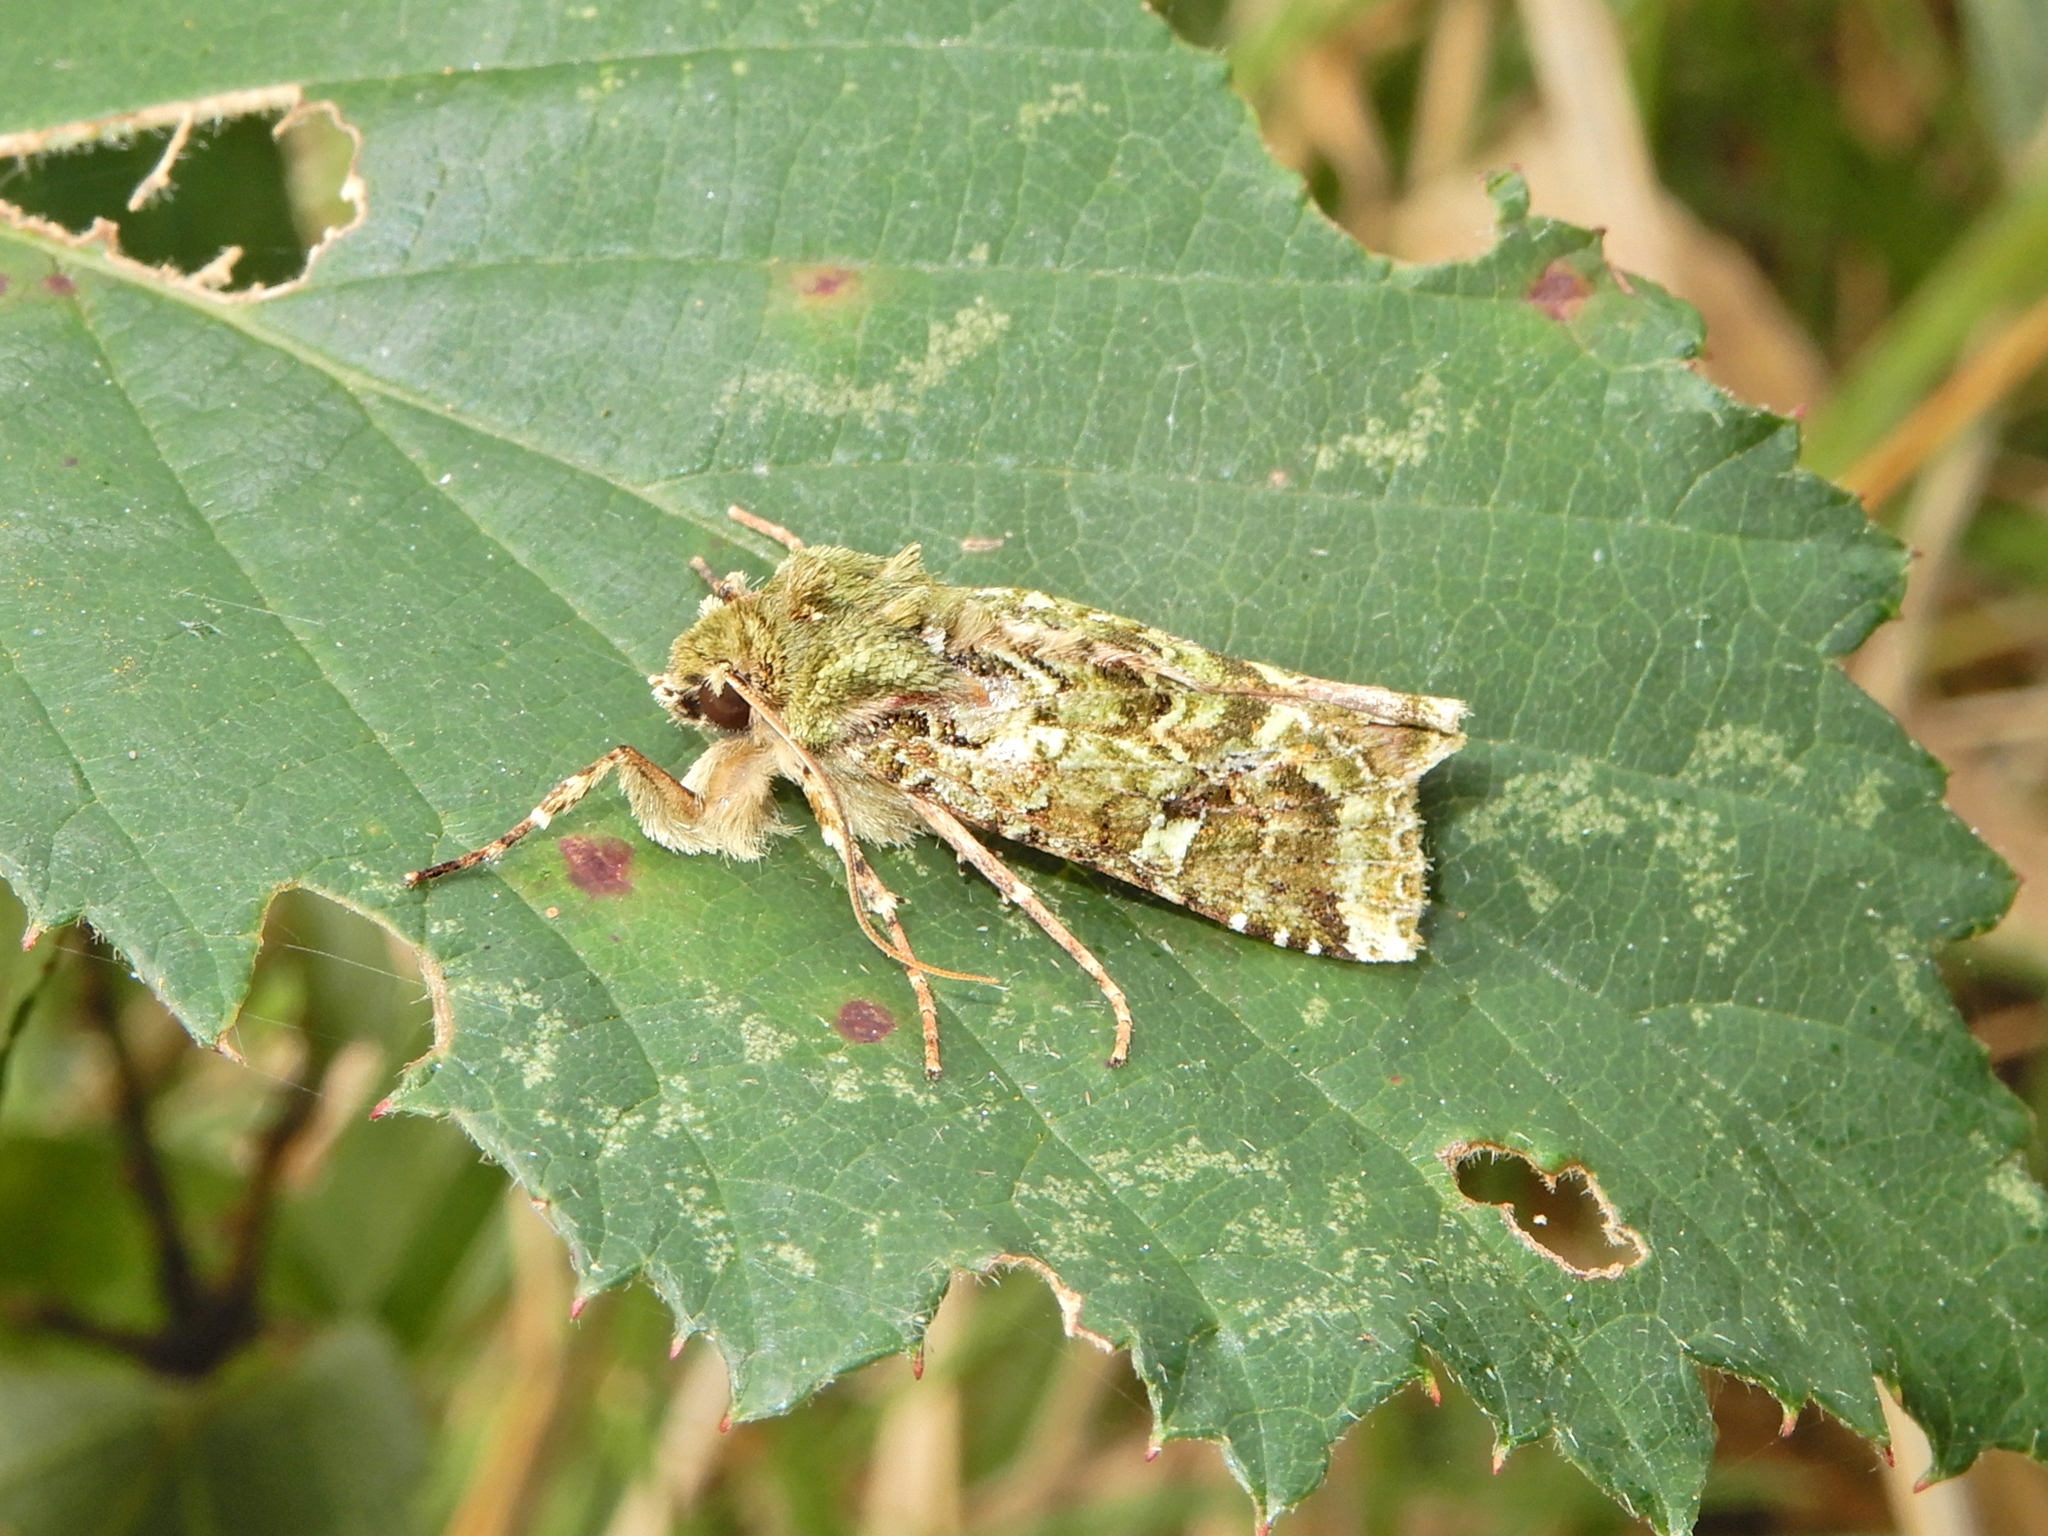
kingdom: Animalia
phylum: Arthropoda
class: Insecta
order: Lepidoptera
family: Noctuidae
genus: Feredayia
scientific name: Feredayia grammosa
